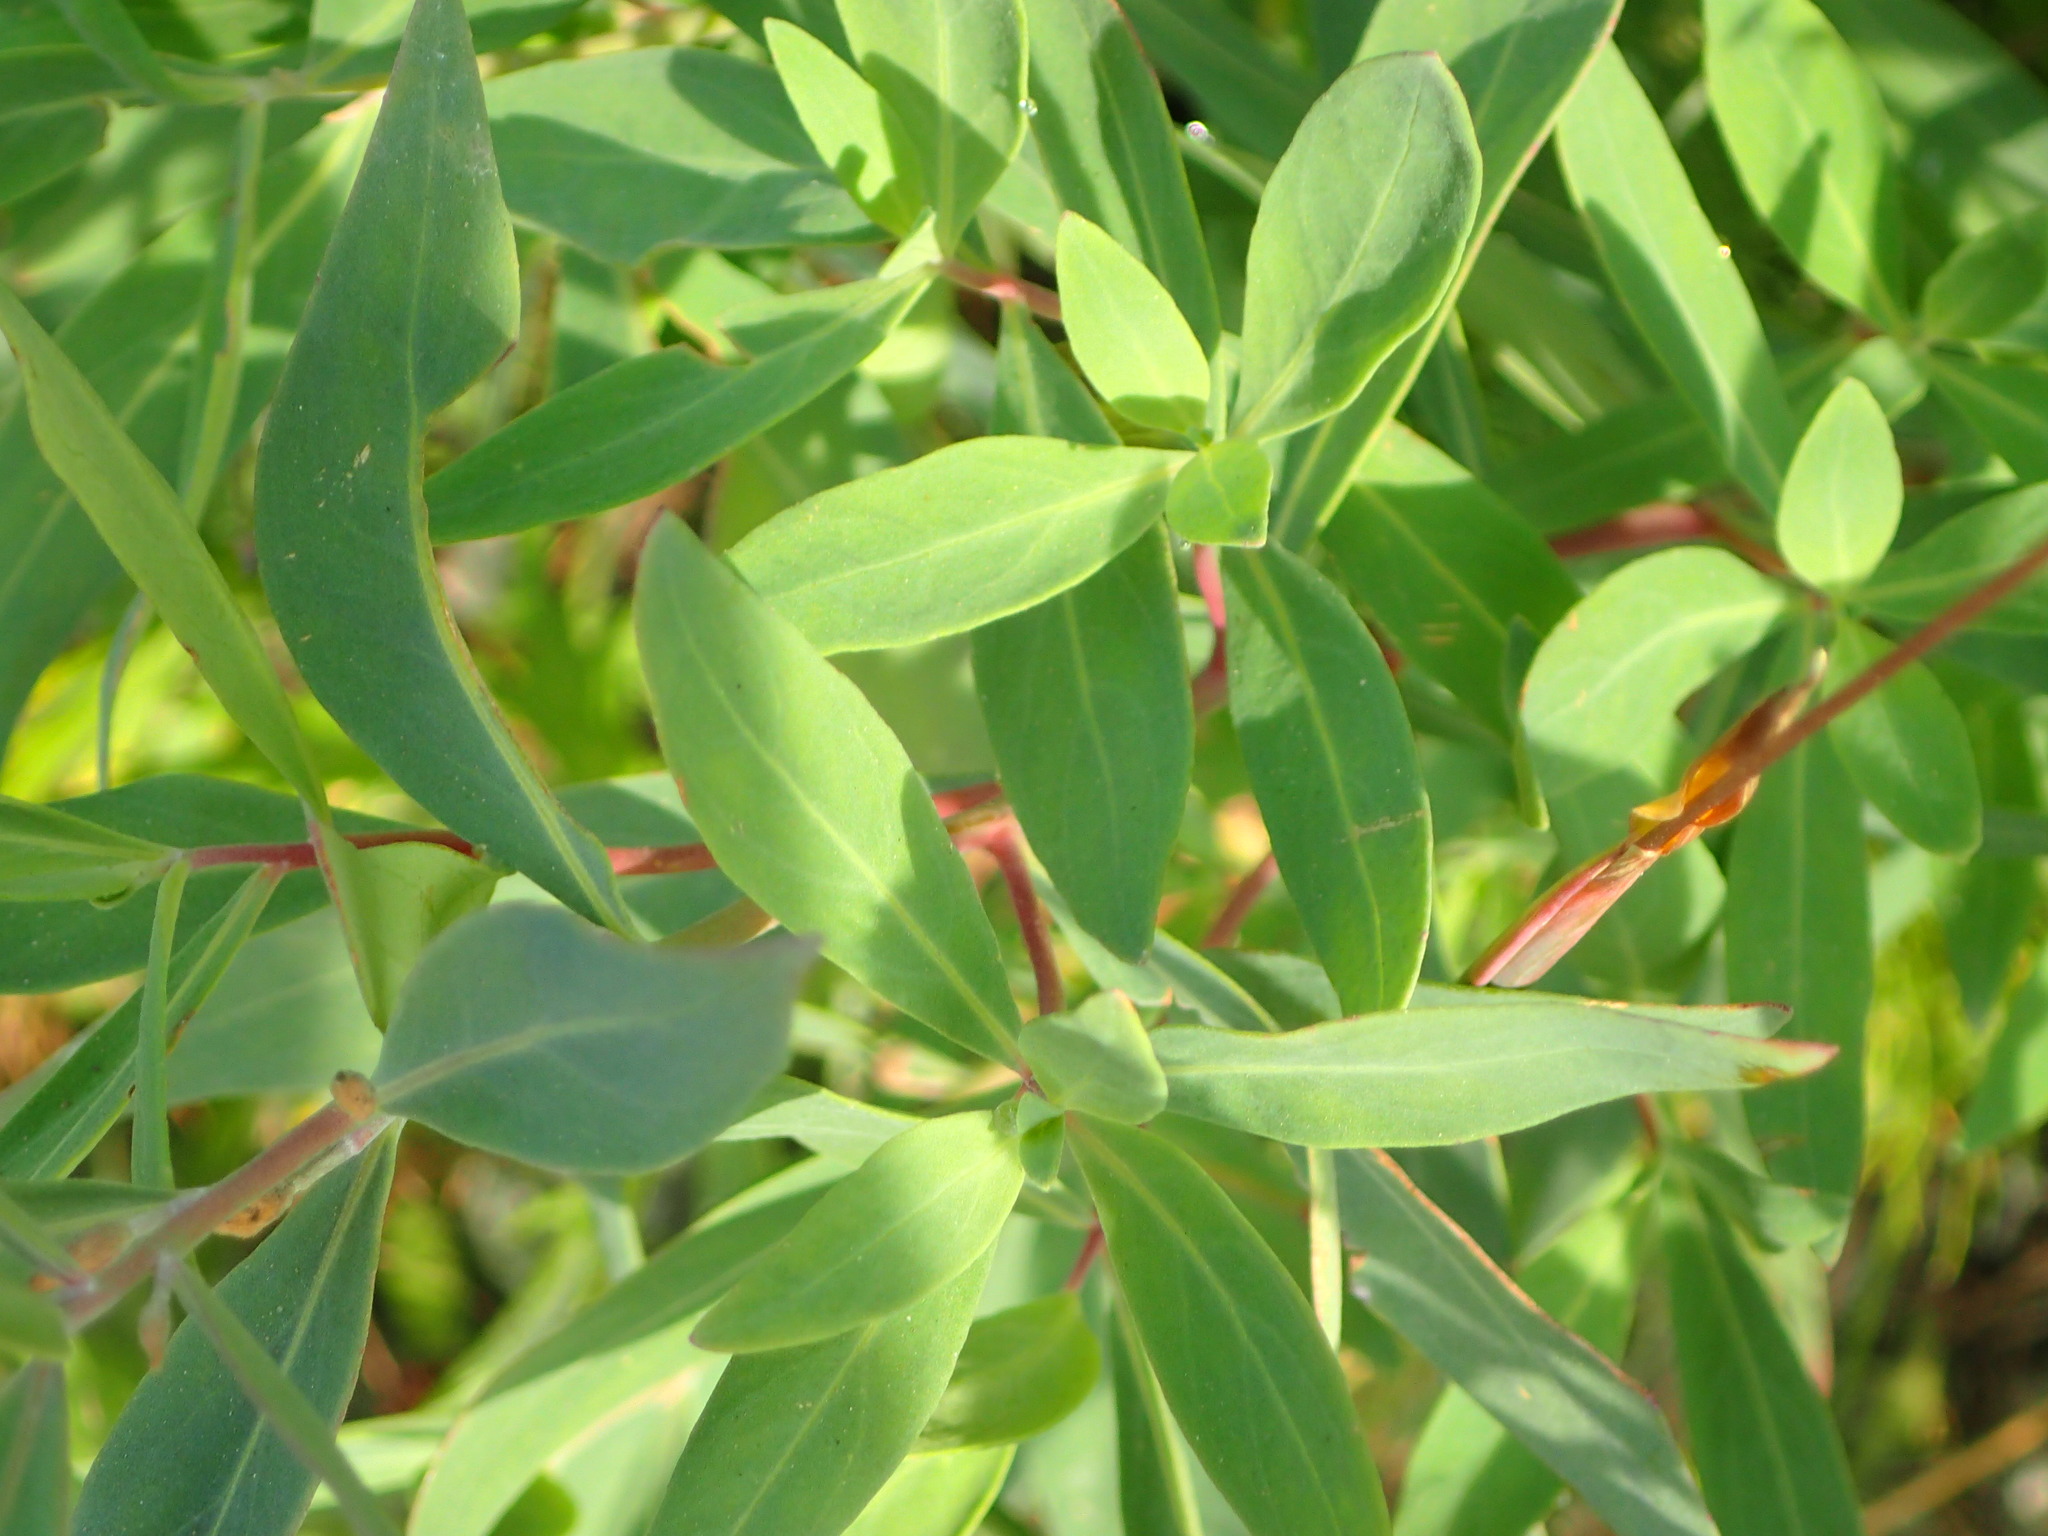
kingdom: Plantae
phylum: Tracheophyta
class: Magnoliopsida
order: Myrtales
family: Onagraceae
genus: Chamaenerion
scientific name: Chamaenerion latifolium
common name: Dwarf fireweed
